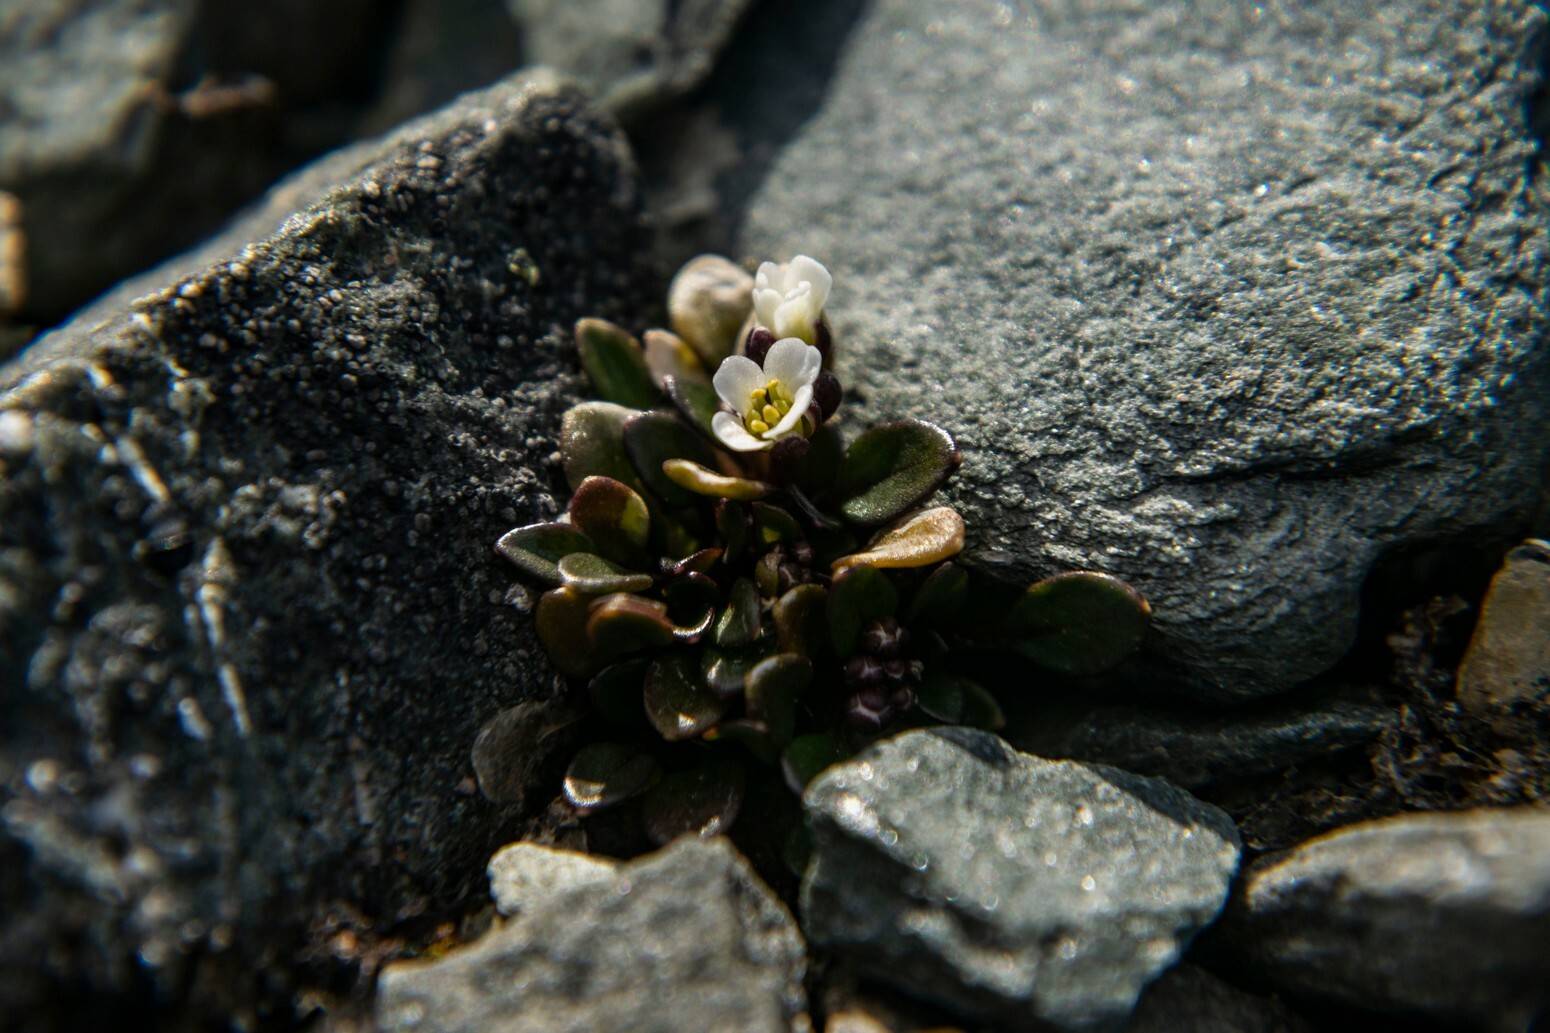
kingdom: Plantae
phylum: Tracheophyta
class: Magnoliopsida
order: Brassicales
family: Brassicaceae
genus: Cardamine
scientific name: Cardamine bellidifolia
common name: Alpine bittercress
